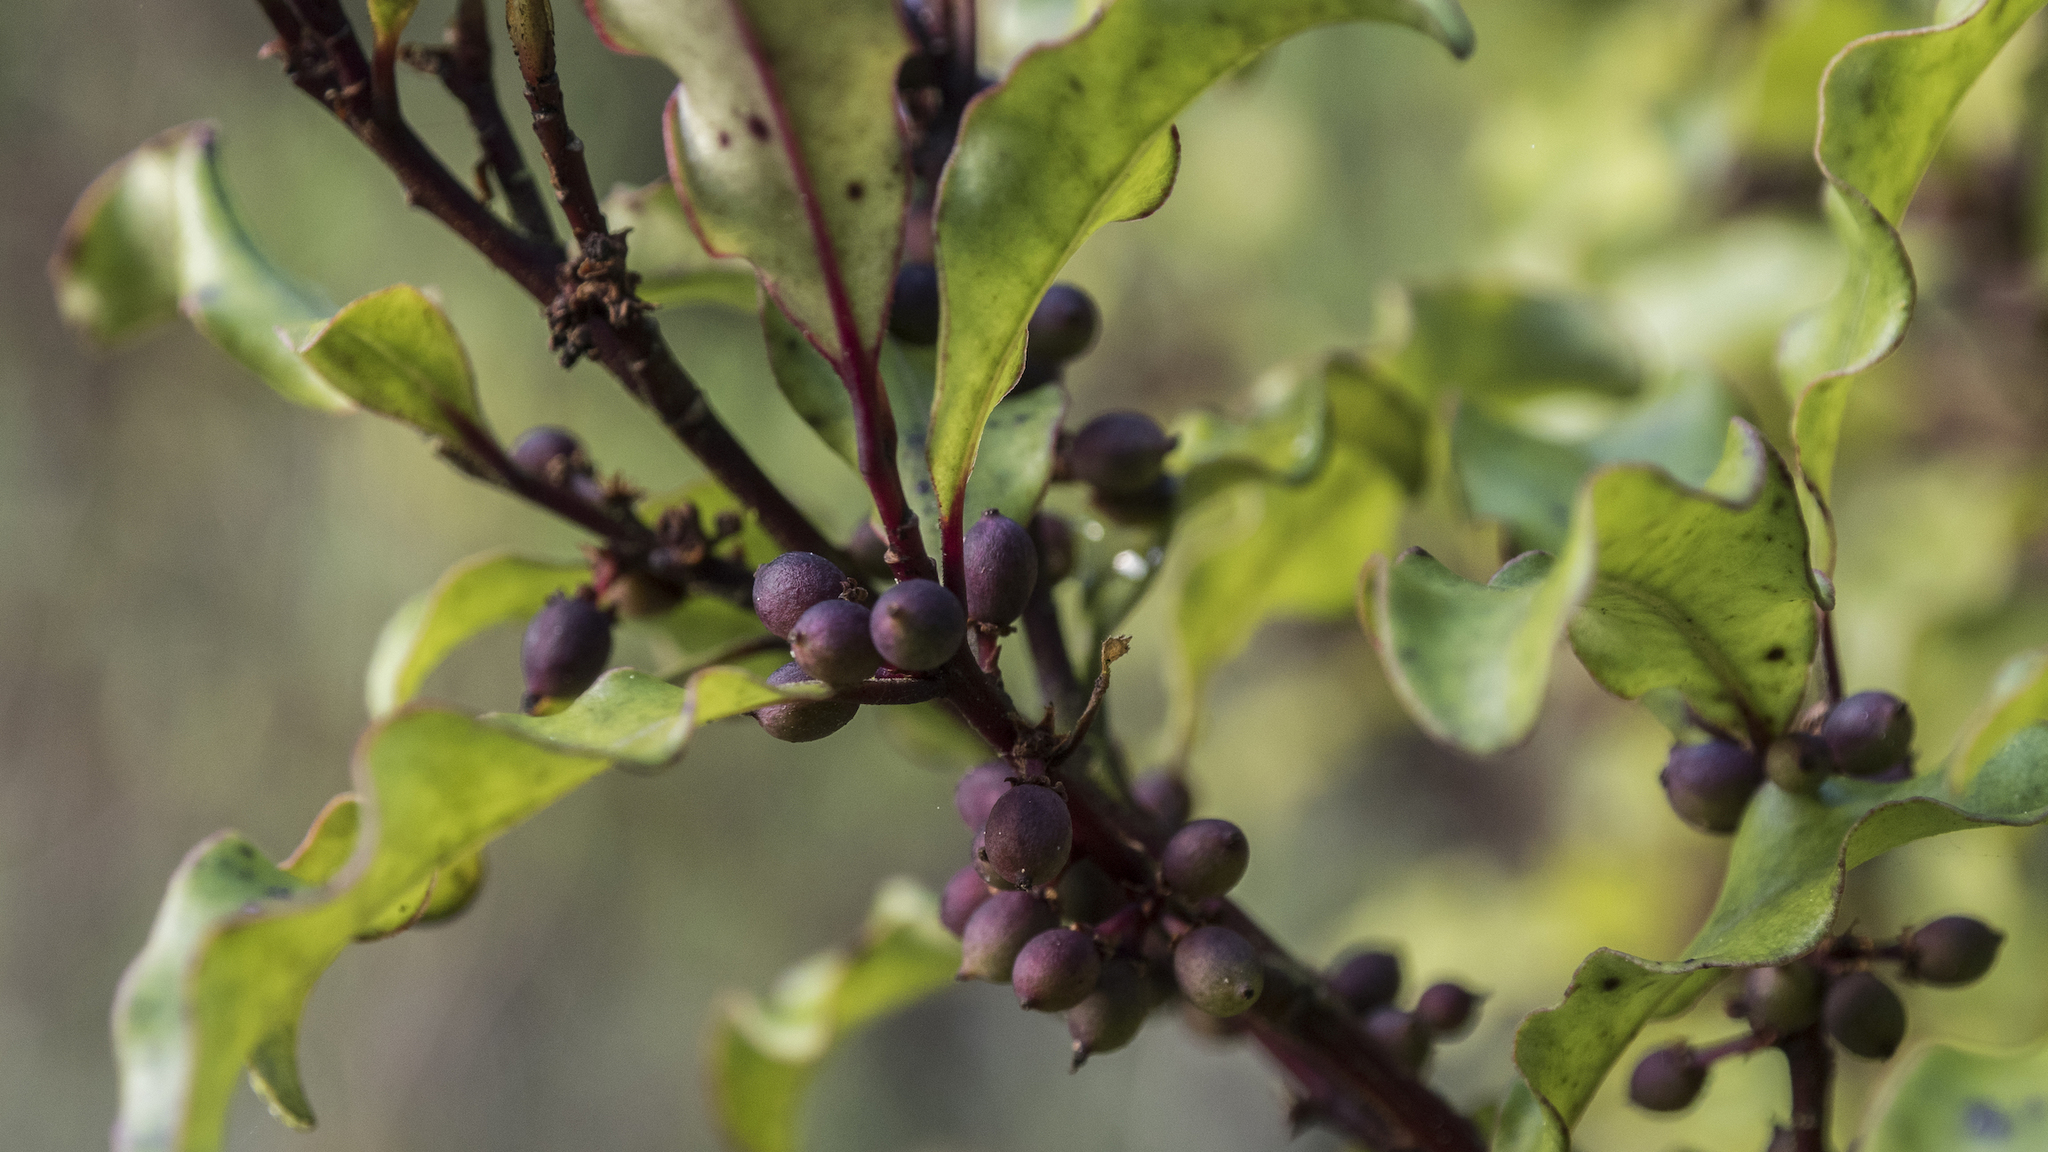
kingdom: Plantae
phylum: Tracheophyta
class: Magnoliopsida
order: Ericales
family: Primulaceae
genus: Myrsine
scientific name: Myrsine australis
